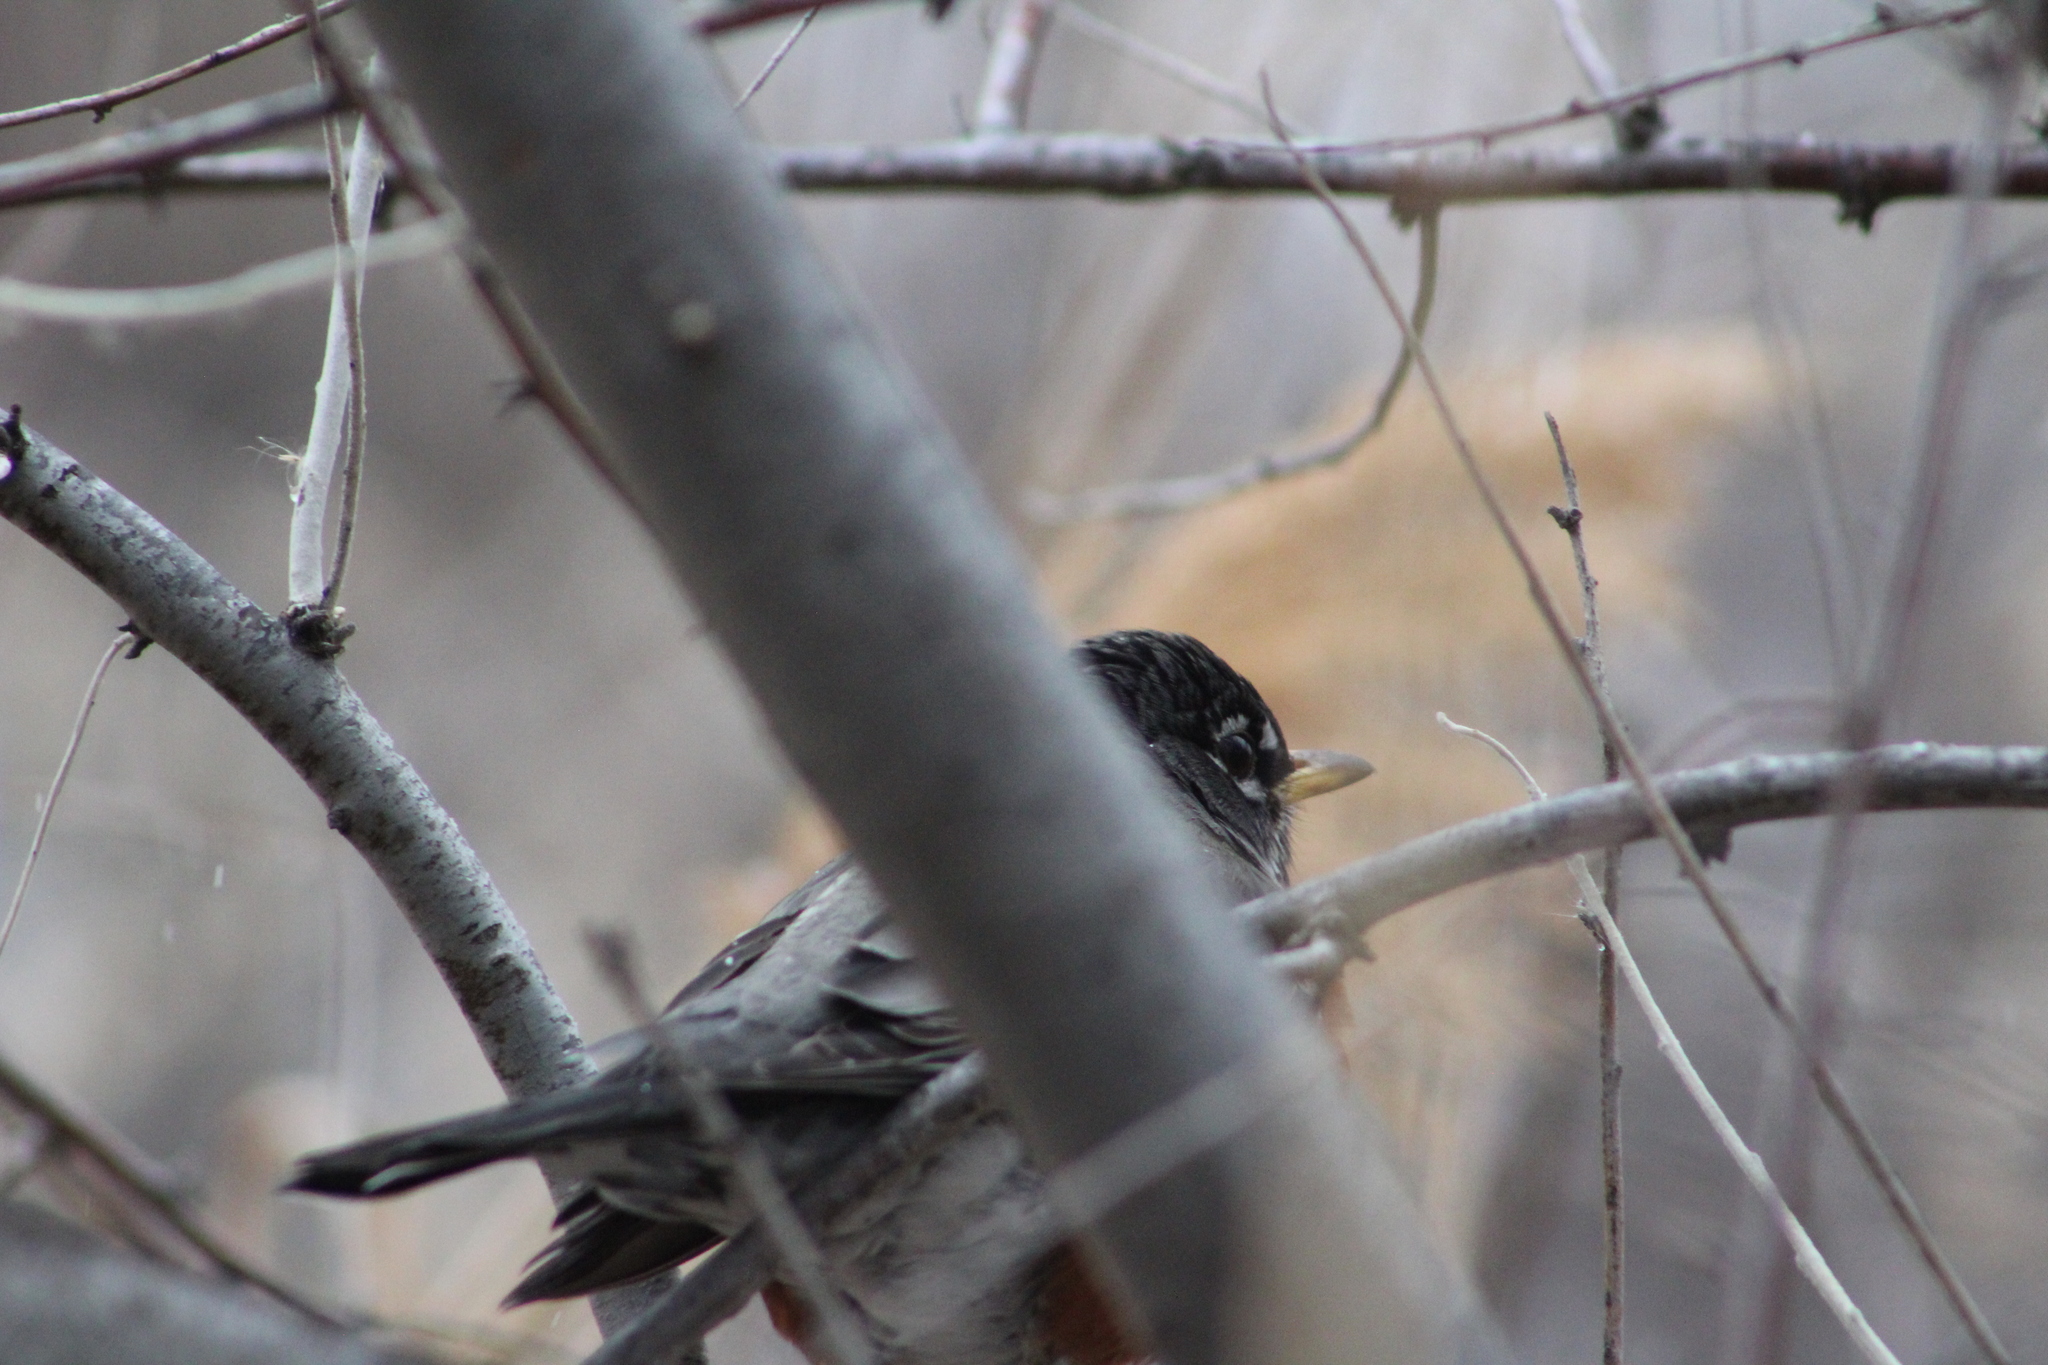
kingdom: Animalia
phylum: Chordata
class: Aves
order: Passeriformes
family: Turdidae
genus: Turdus
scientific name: Turdus migratorius
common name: American robin
